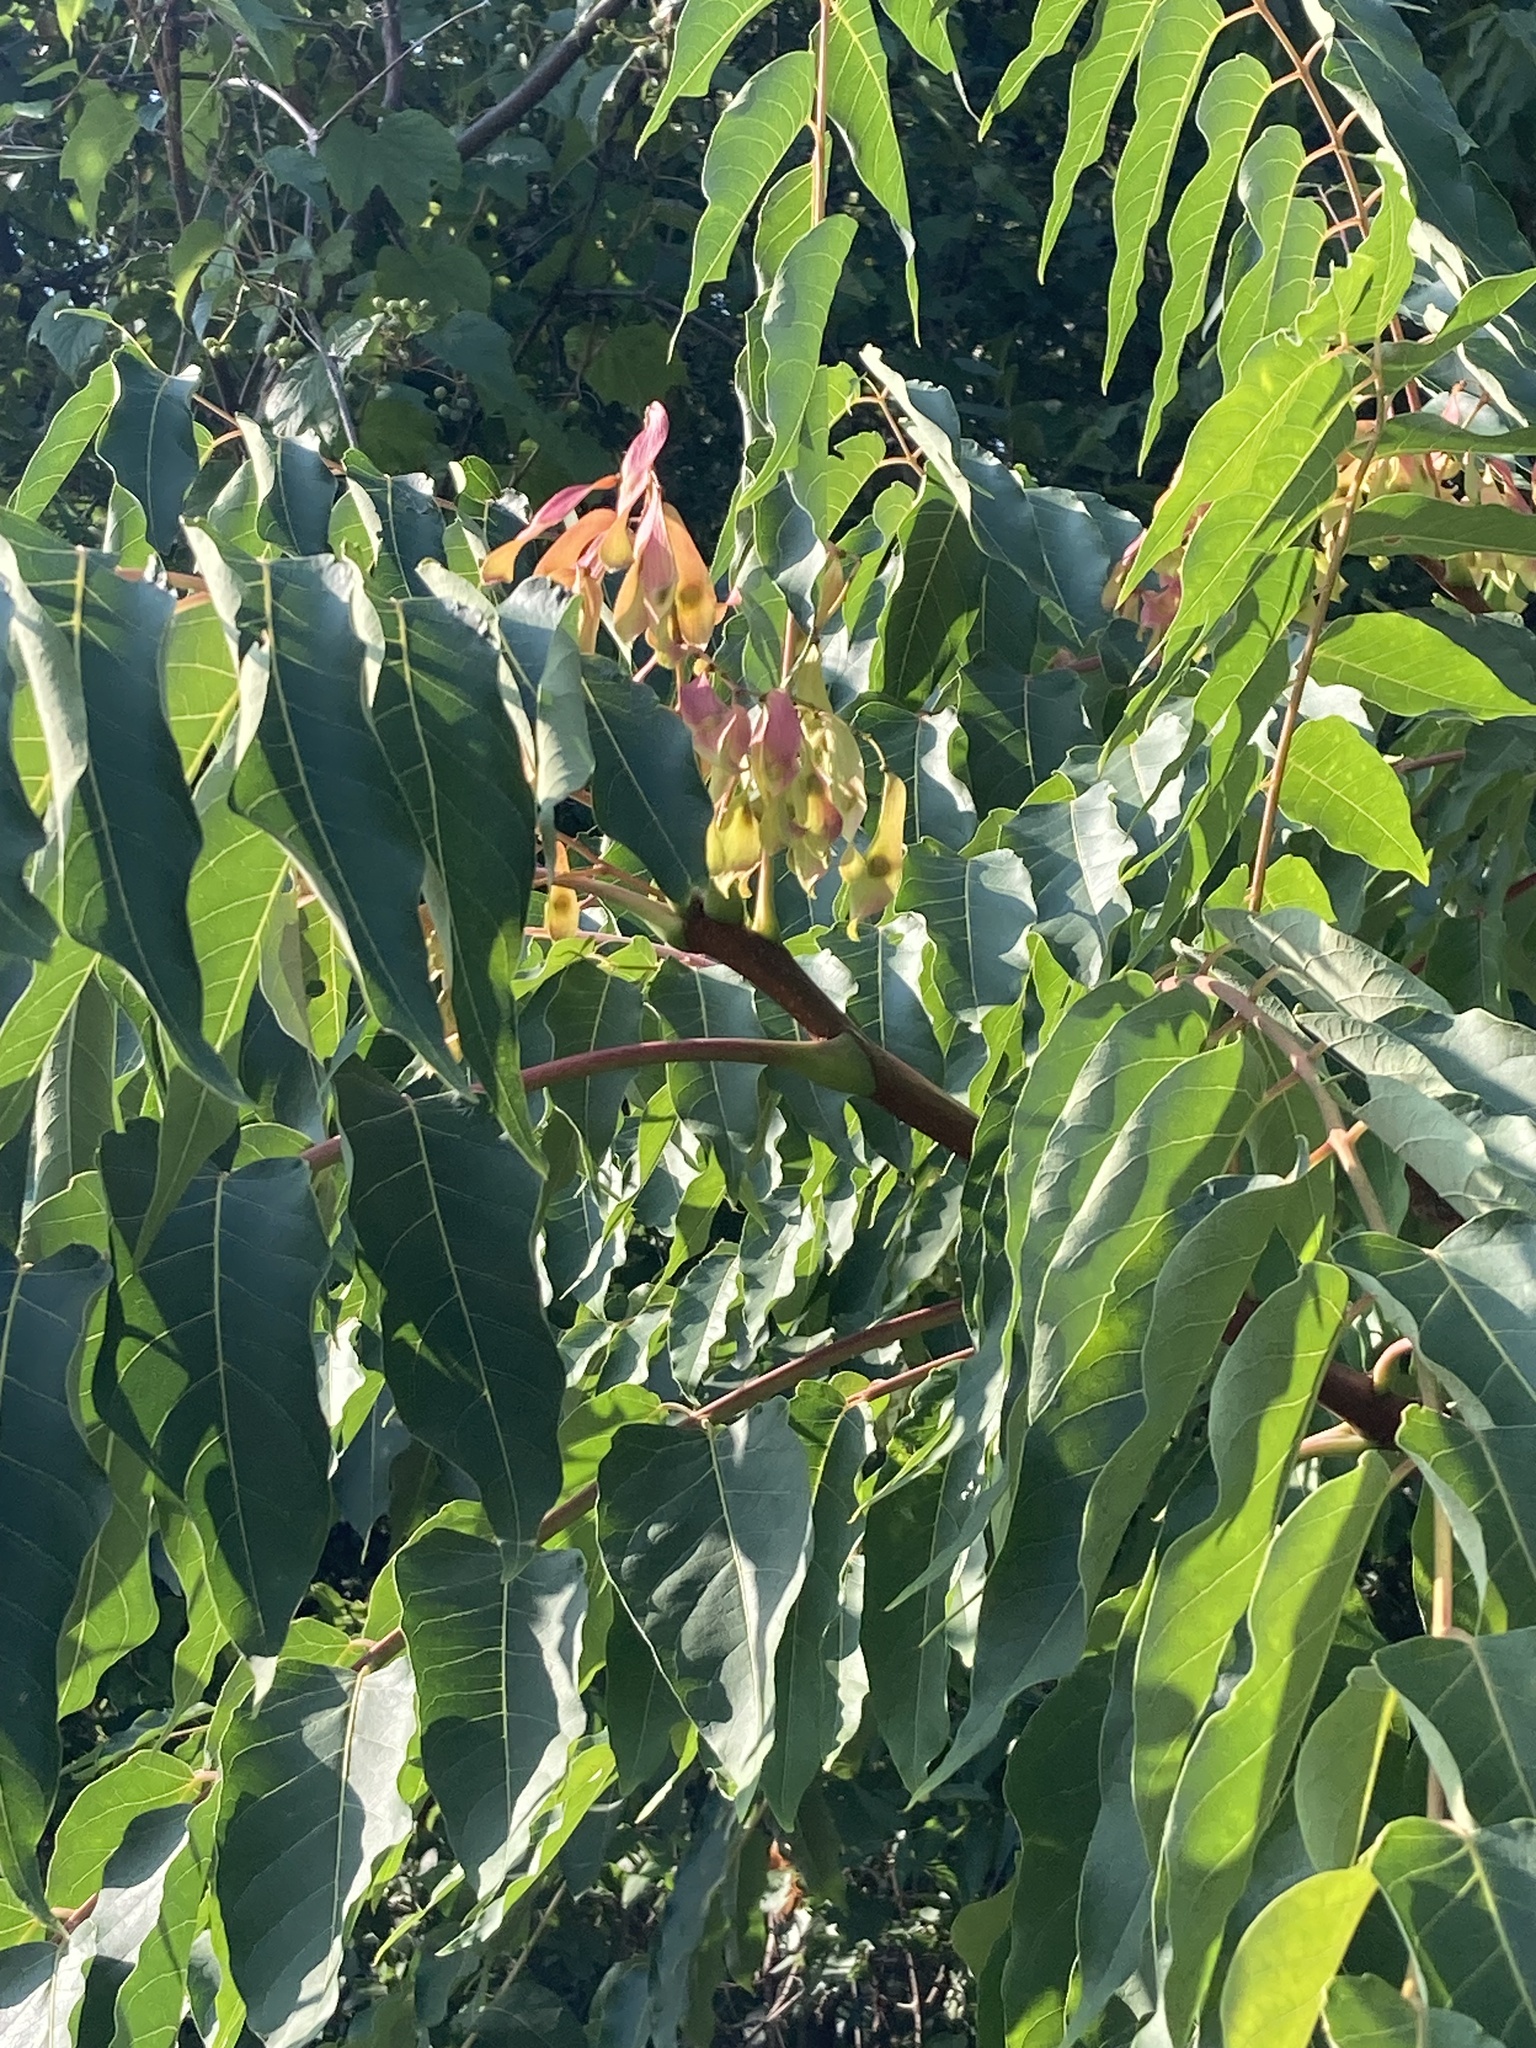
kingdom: Plantae
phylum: Tracheophyta
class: Magnoliopsida
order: Sapindales
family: Simaroubaceae
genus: Ailanthus
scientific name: Ailanthus altissima
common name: Tree-of-heaven
